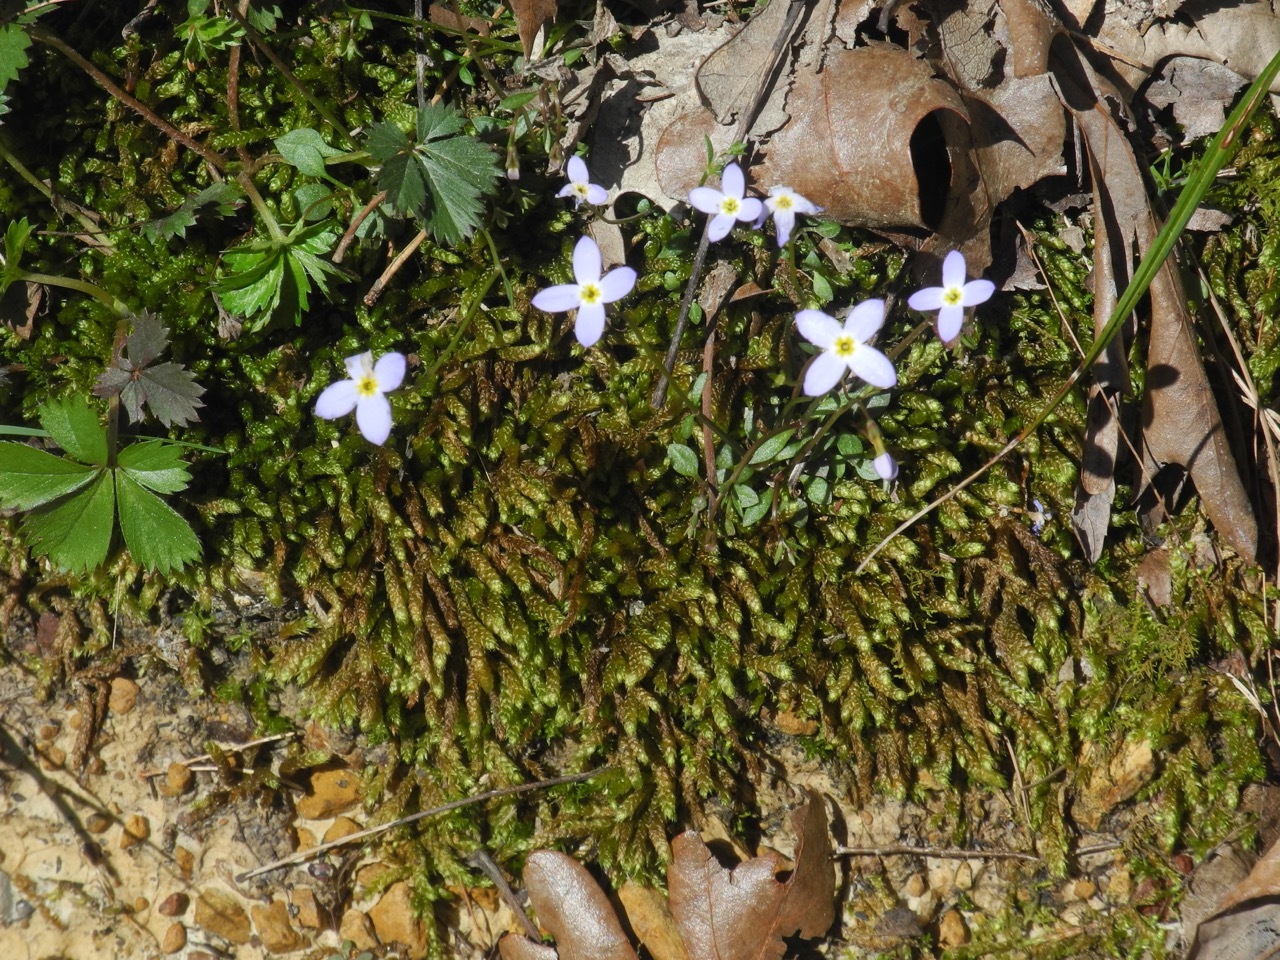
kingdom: Plantae
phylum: Bryophyta
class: Bryopsida
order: Hypnales
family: Brachytheciaceae
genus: Bryoandersonia
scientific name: Bryoandersonia illecebra
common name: Spoon-leaved moss
